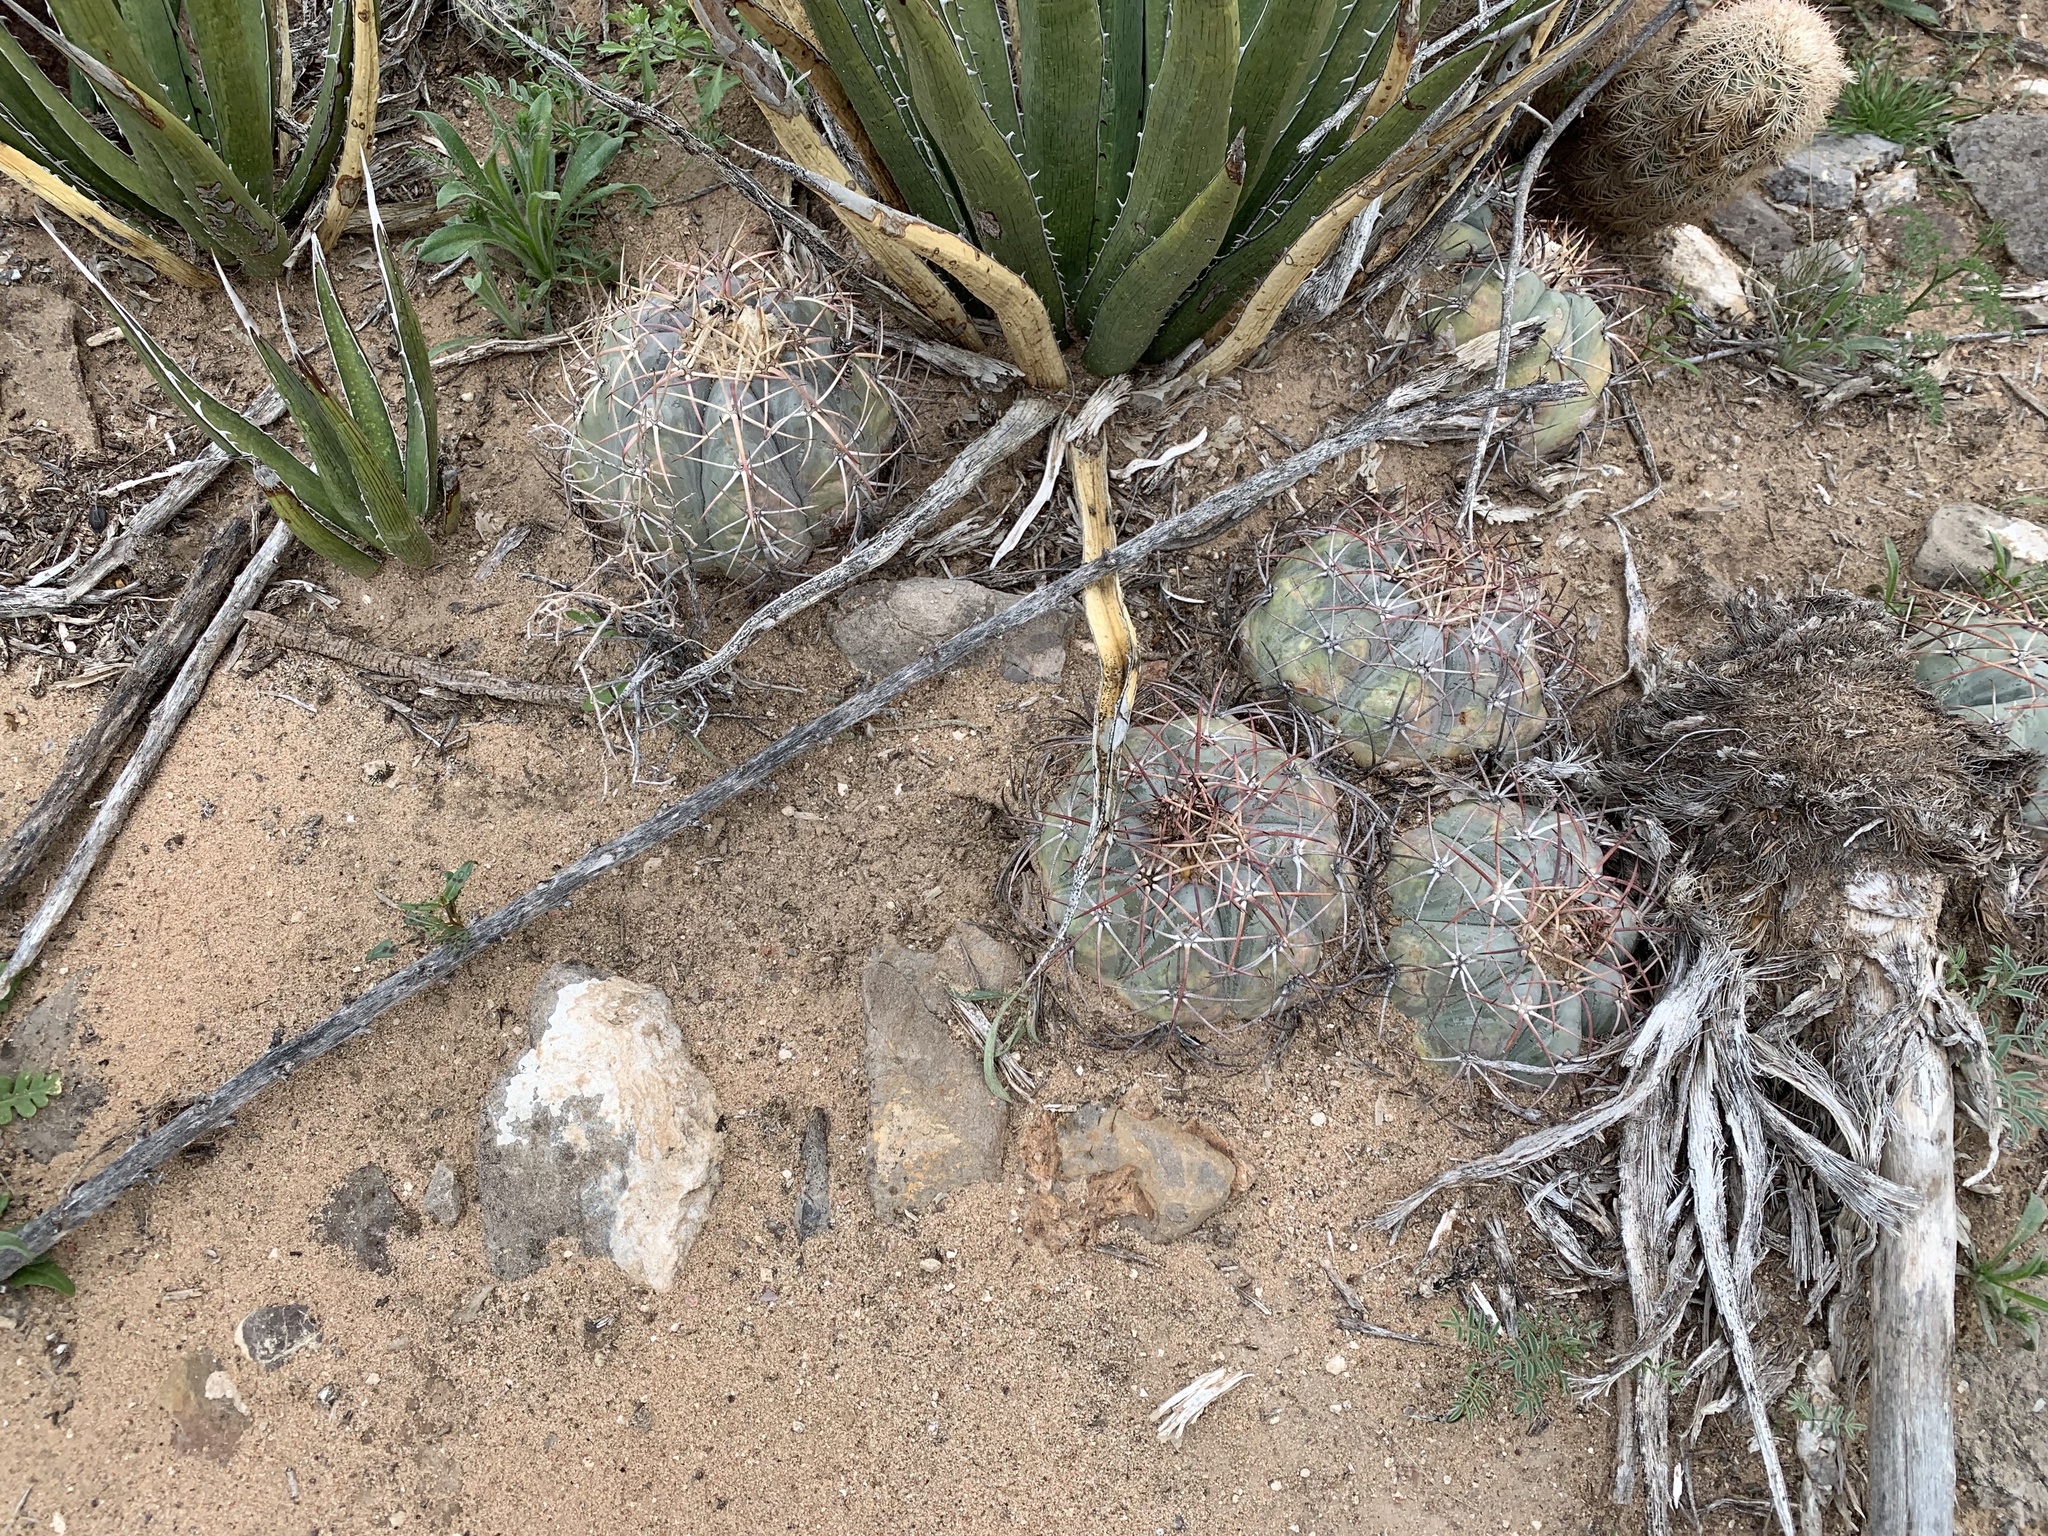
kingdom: Plantae
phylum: Tracheophyta
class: Magnoliopsida
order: Caryophyllales
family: Cactaceae
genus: Echinocactus
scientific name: Echinocactus horizonthalonius
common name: Devilshead
